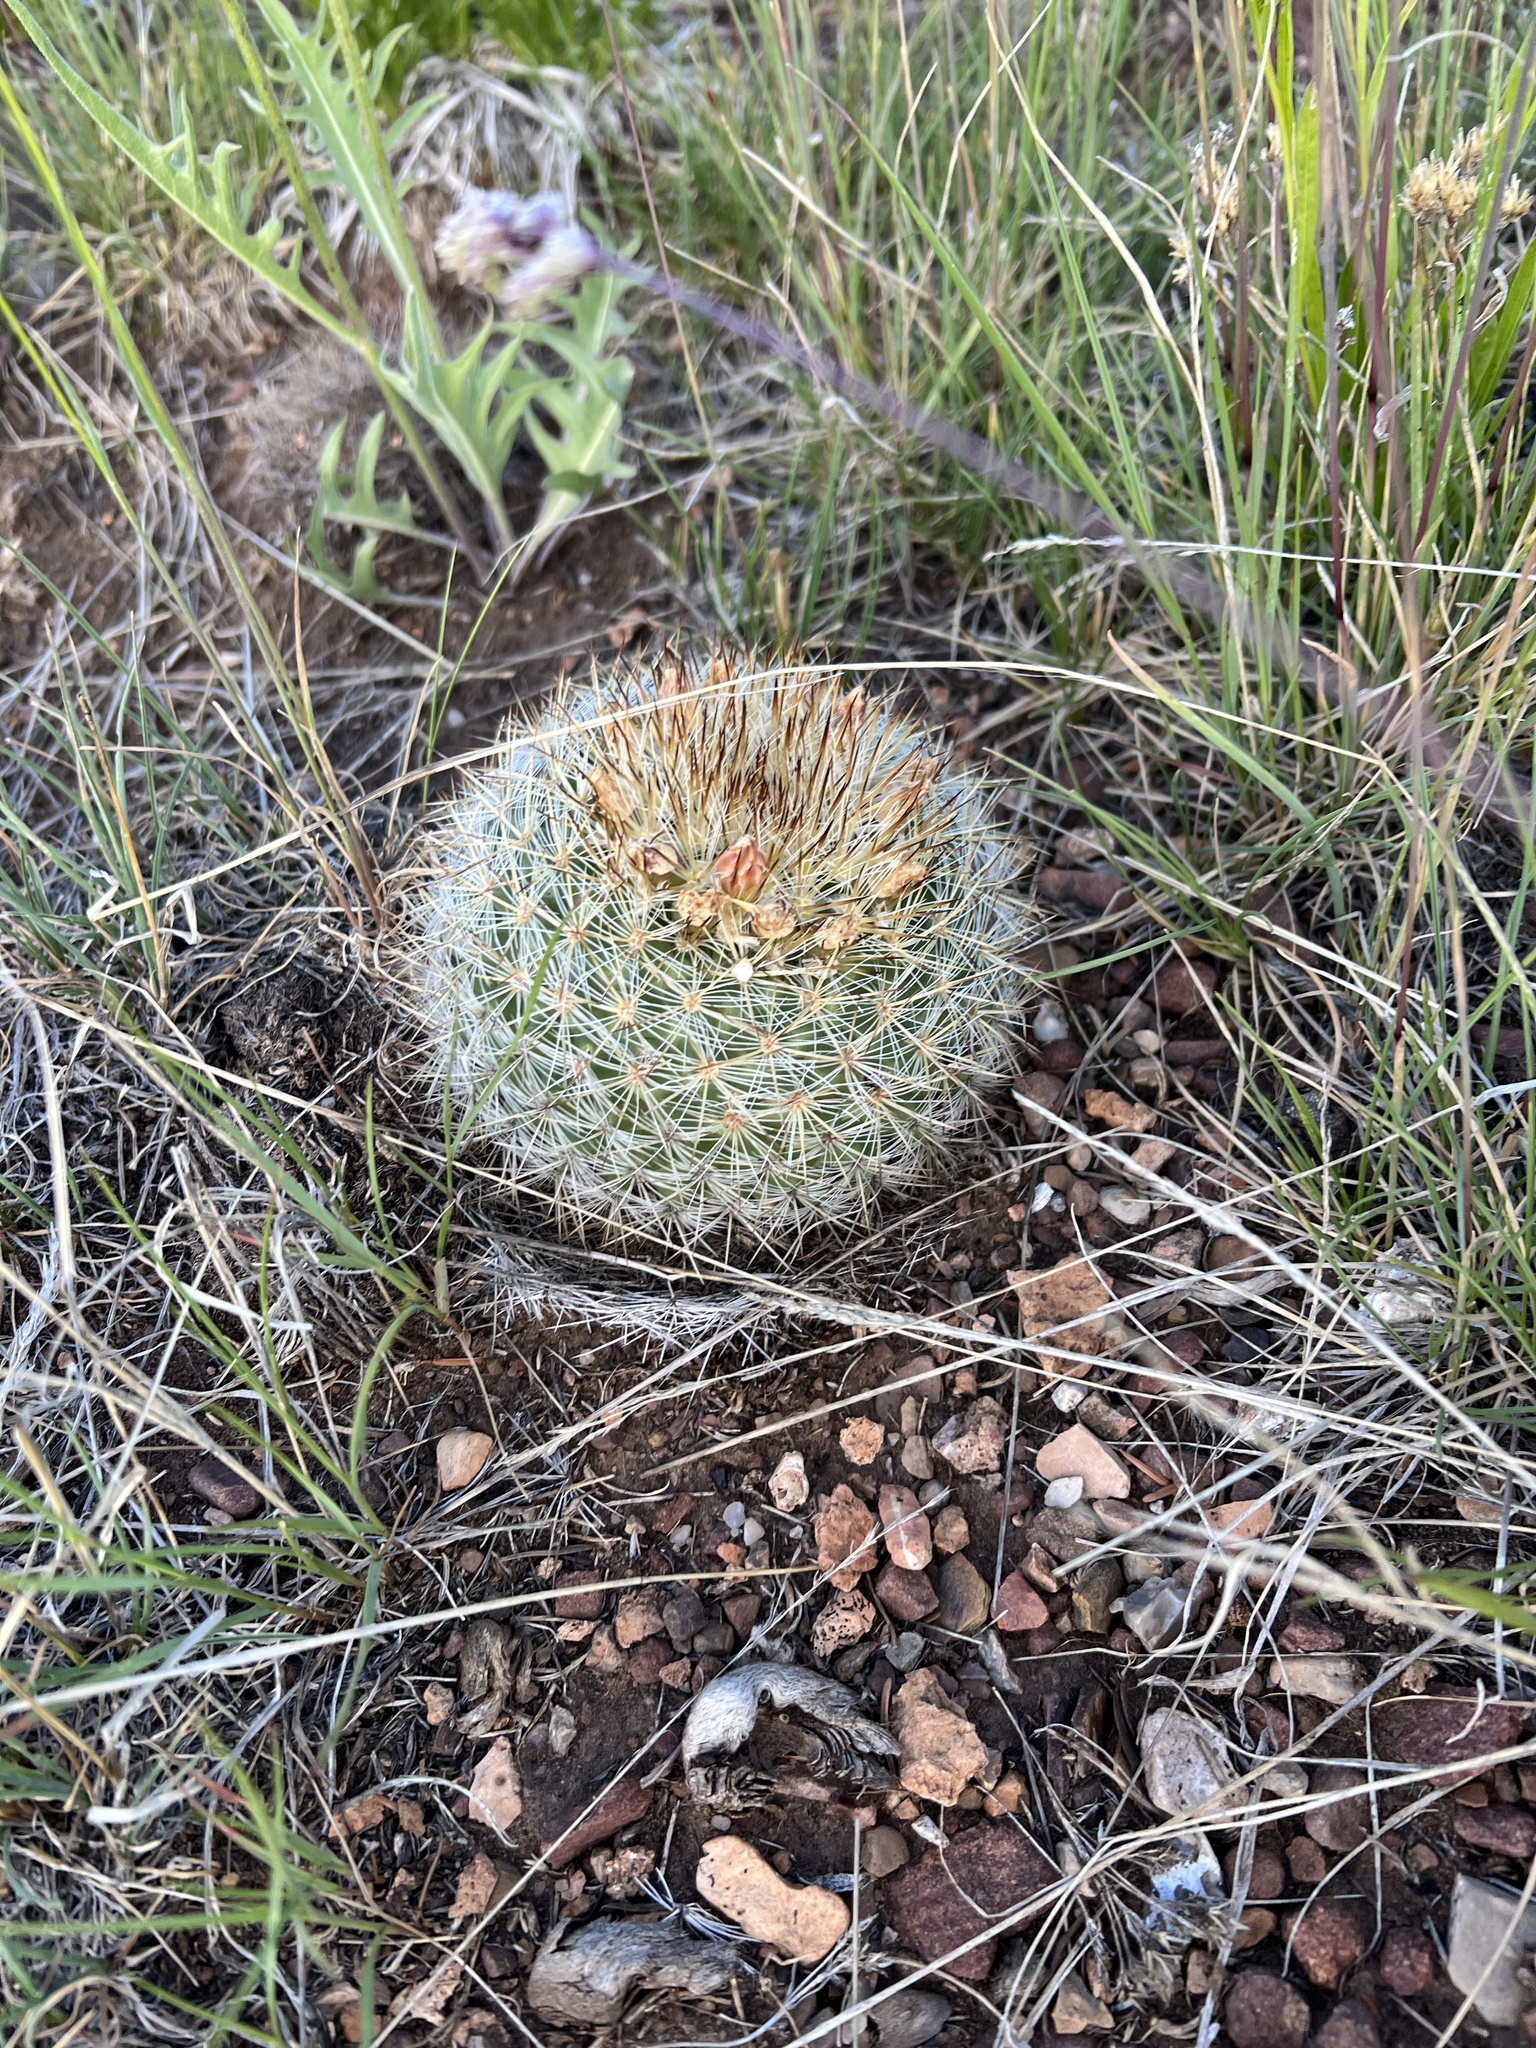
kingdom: Plantae
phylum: Tracheophyta
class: Magnoliopsida
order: Caryophyllales
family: Cactaceae
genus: Pediocactus
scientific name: Pediocactus simpsonii
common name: Simpson's hedgehog cactus
